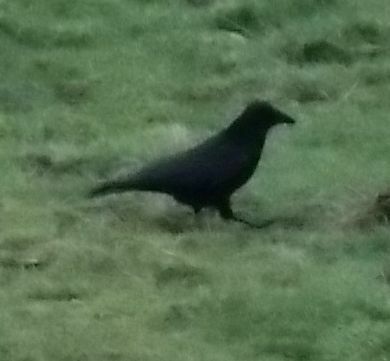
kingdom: Animalia
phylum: Chordata
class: Aves
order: Passeriformes
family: Corvidae
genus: Corvus
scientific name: Corvus corone
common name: Carrion crow
